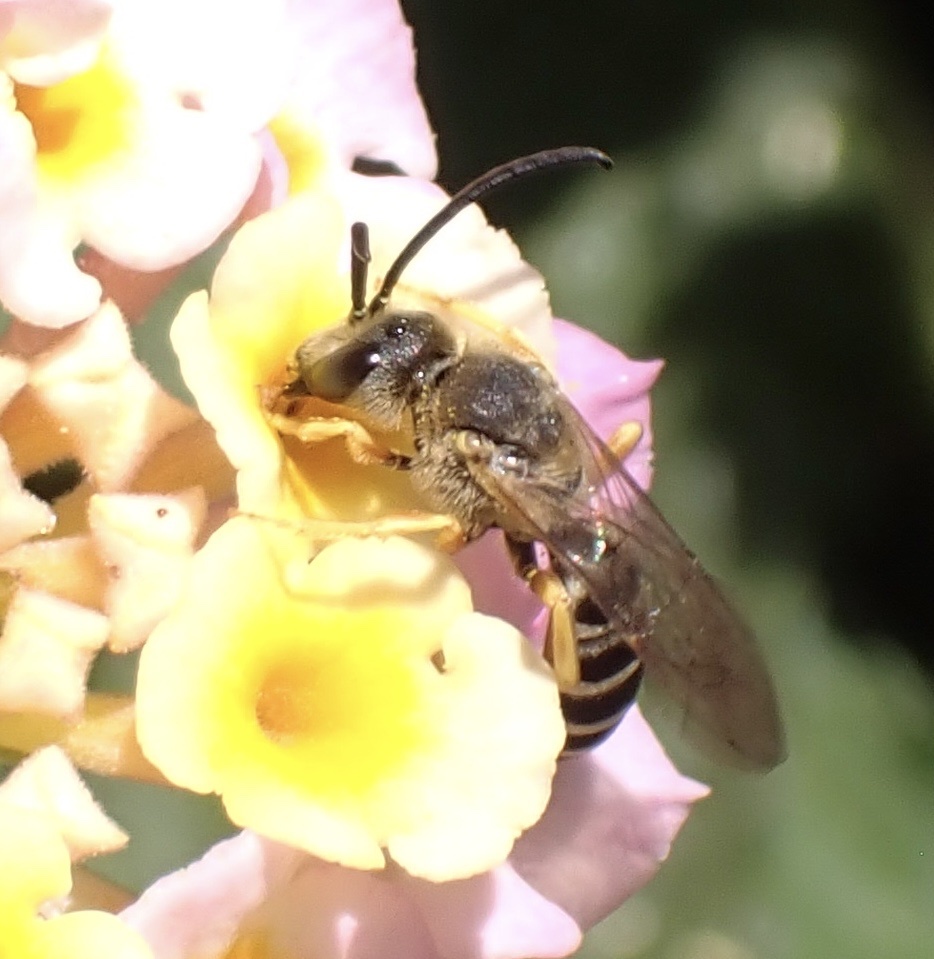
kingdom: Animalia
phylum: Arthropoda
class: Insecta
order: Hymenoptera
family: Halictidae
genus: Halictus
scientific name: Halictus scabiosae
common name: Great banded furrow bee
